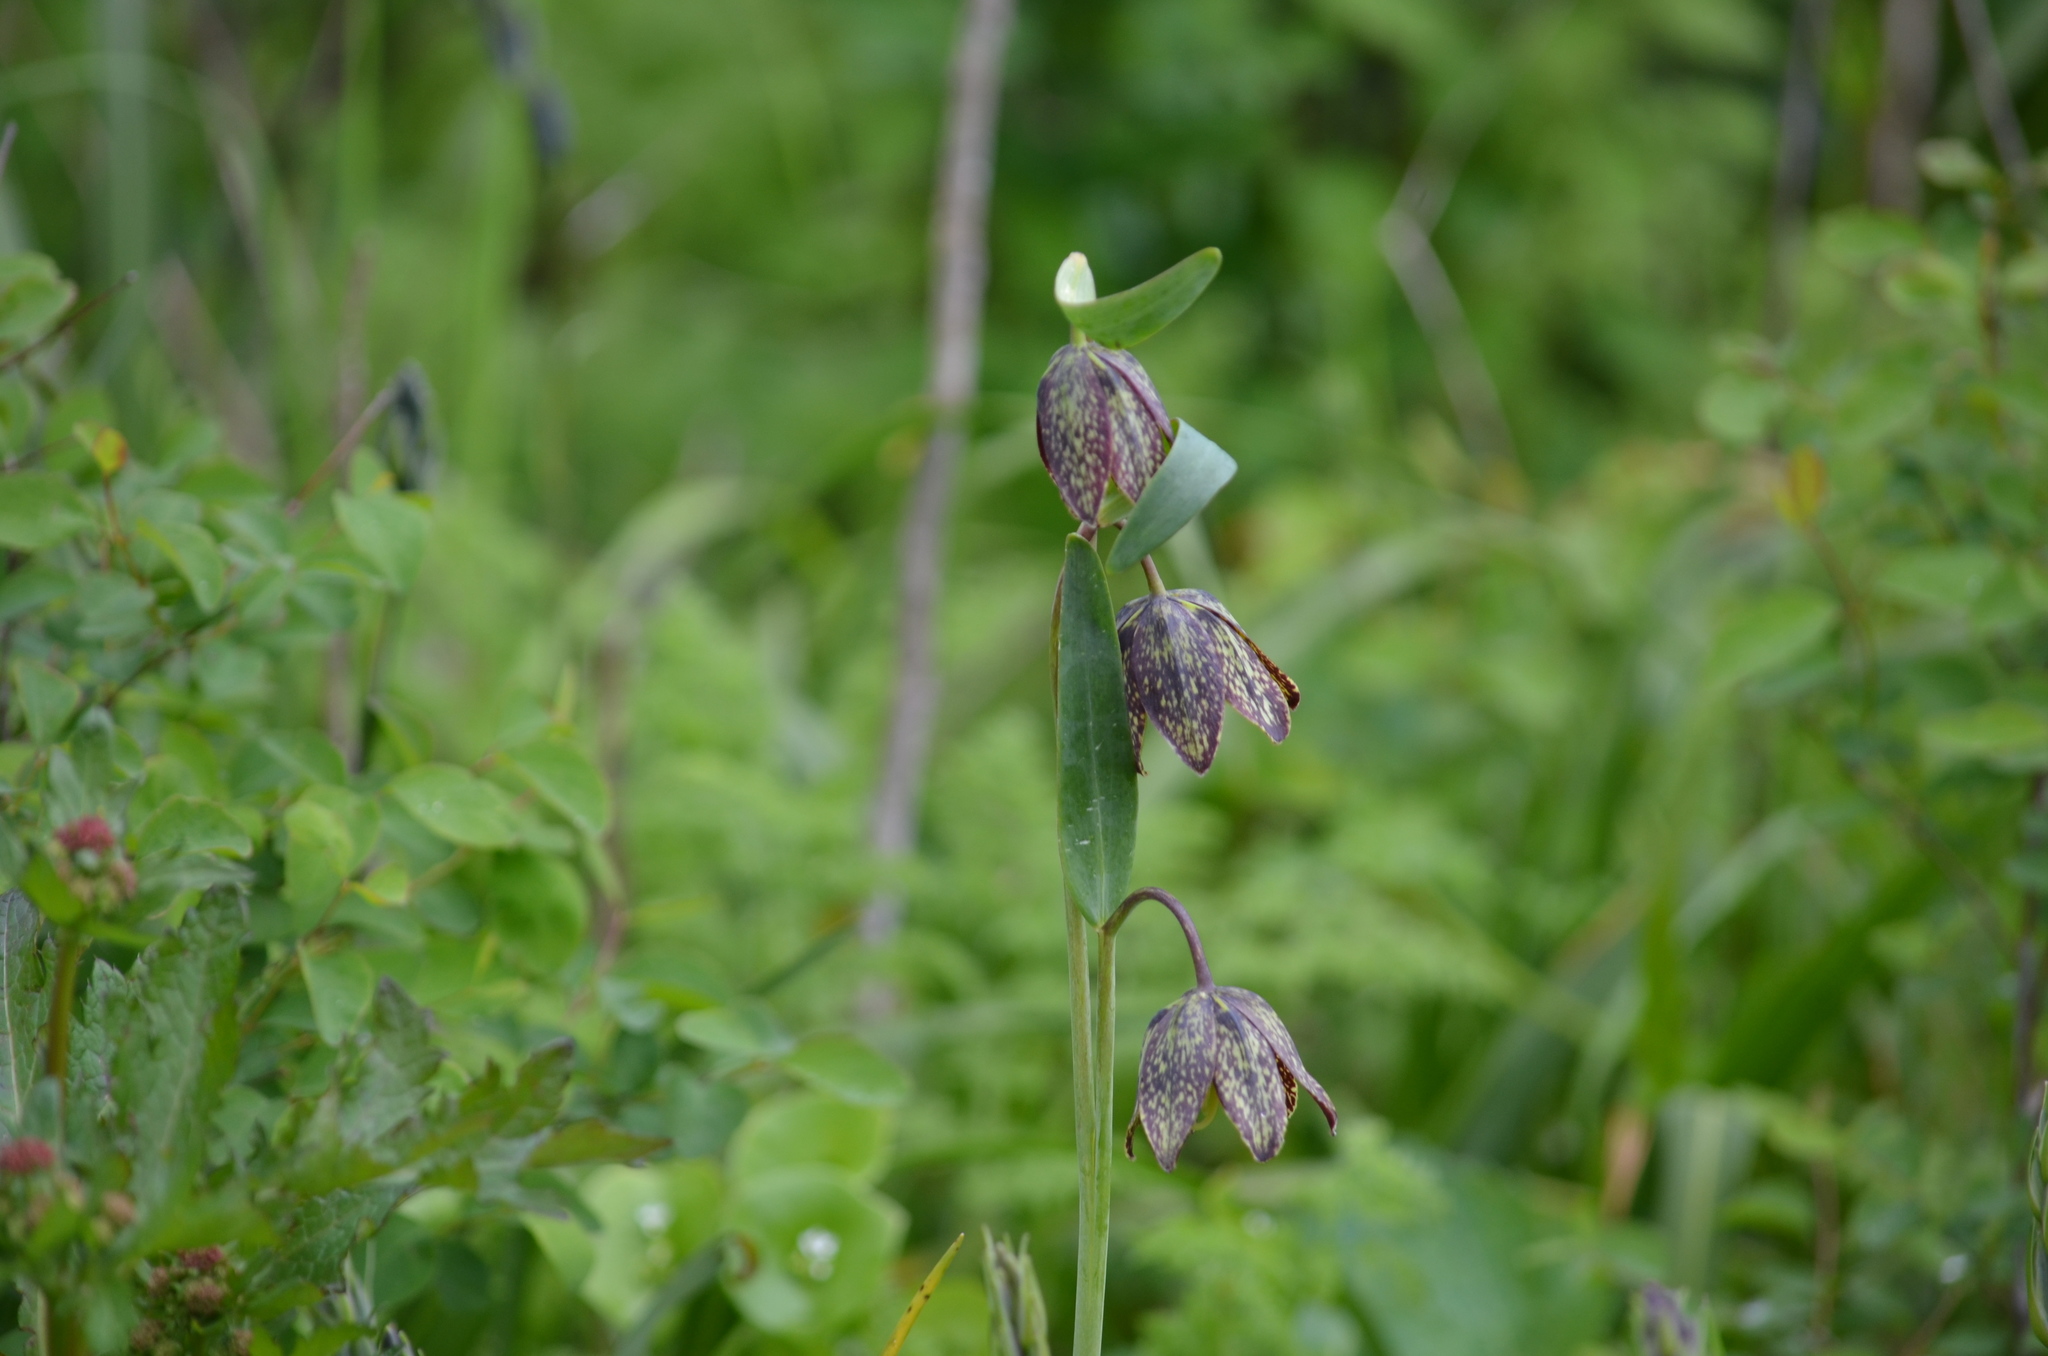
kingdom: Plantae
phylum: Tracheophyta
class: Liliopsida
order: Liliales
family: Liliaceae
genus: Fritillaria
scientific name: Fritillaria affinis
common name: Ojai fritillary
